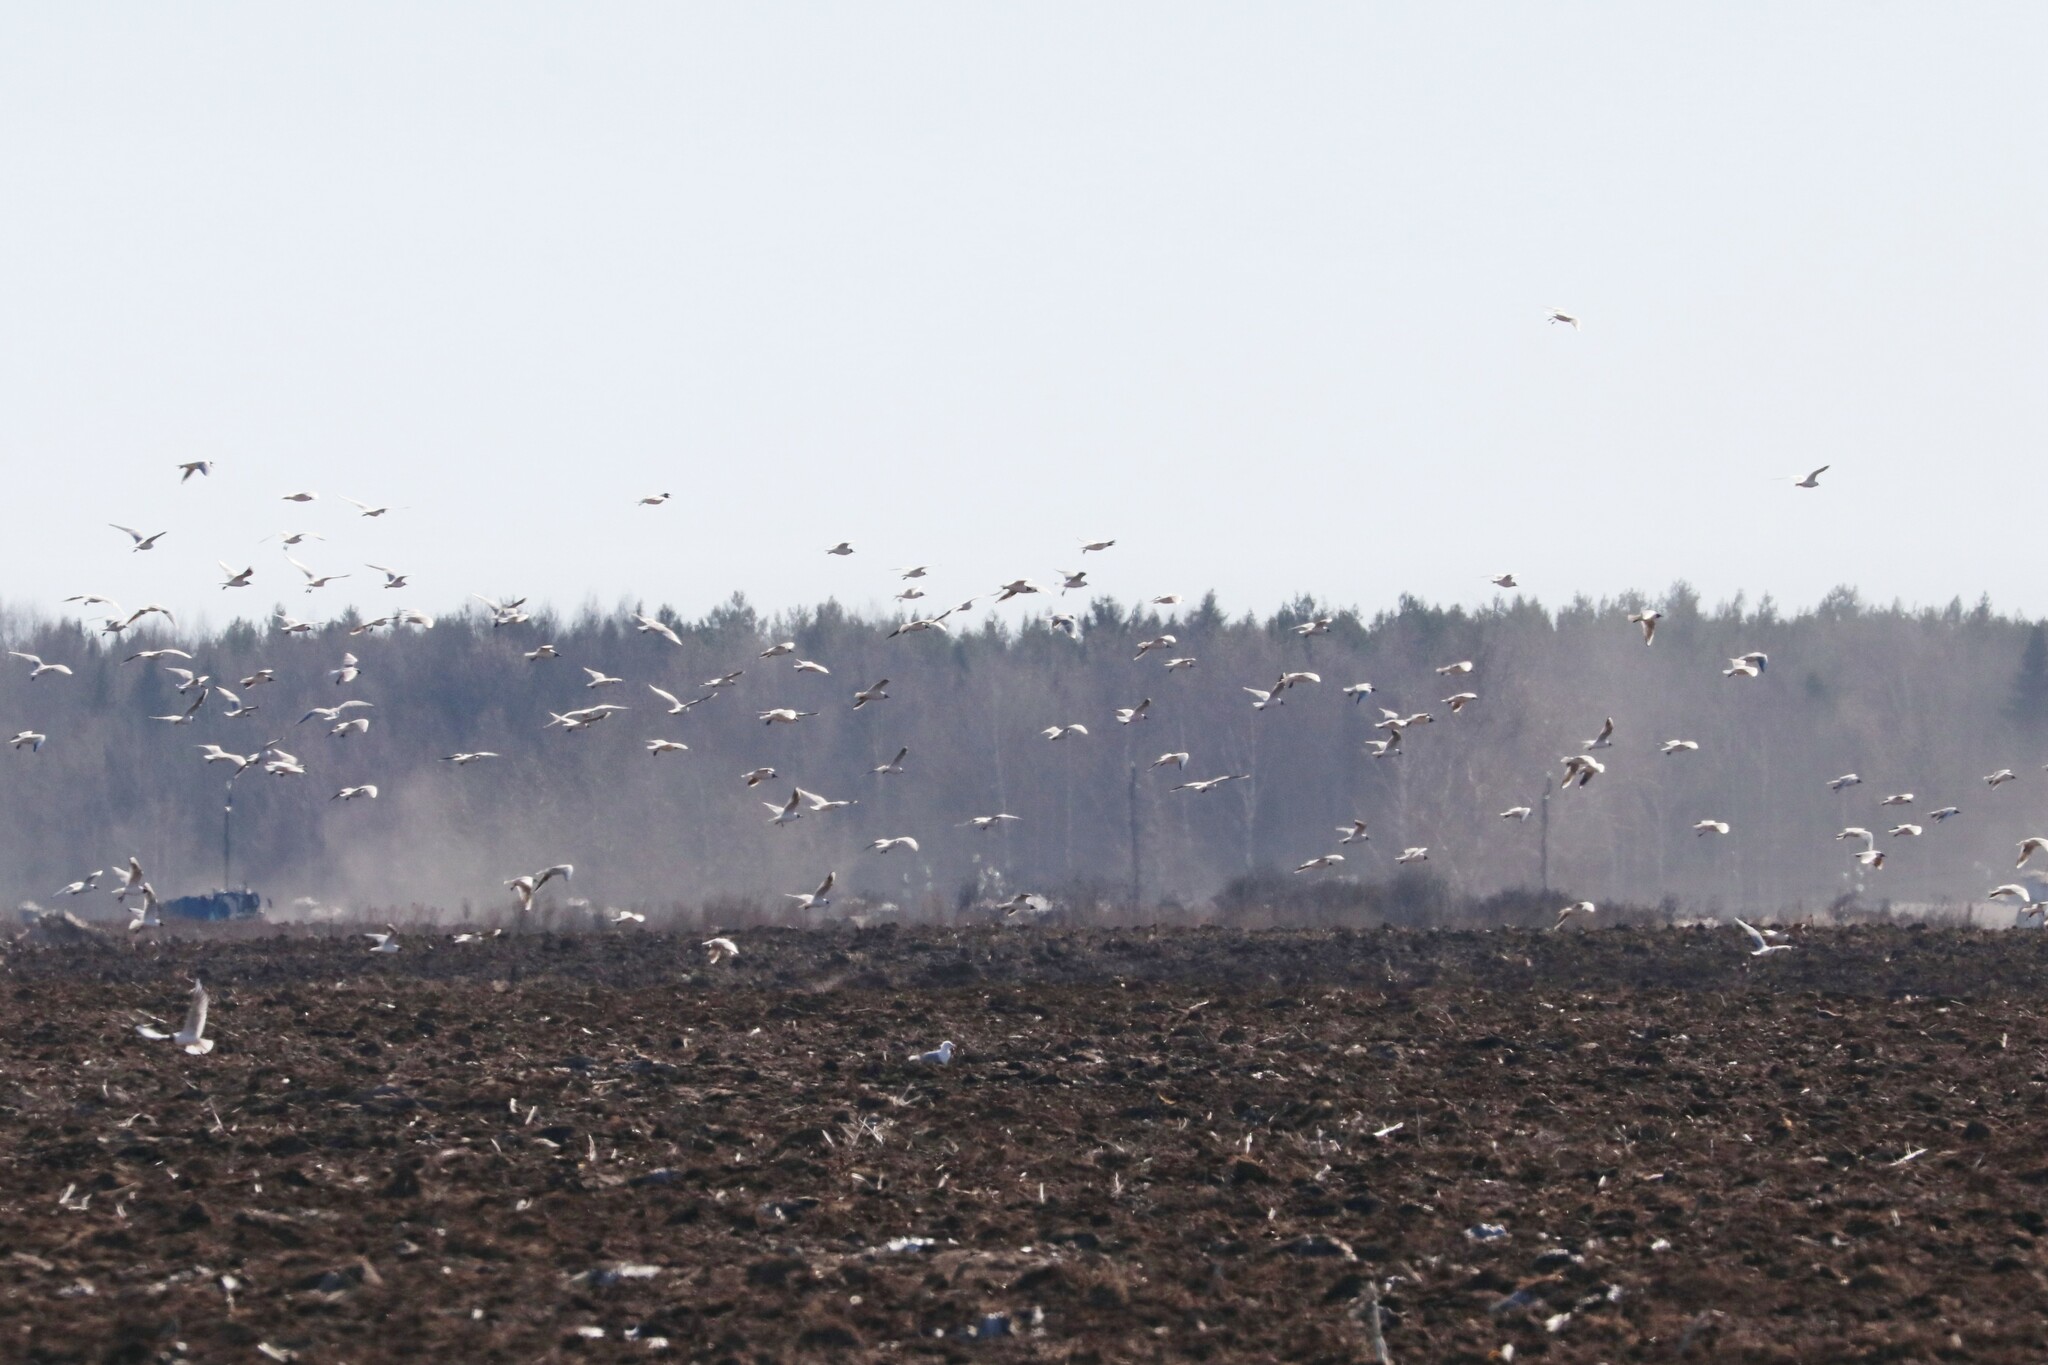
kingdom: Animalia
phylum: Chordata
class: Aves
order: Charadriiformes
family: Laridae
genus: Chroicocephalus
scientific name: Chroicocephalus ridibundus
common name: Black-headed gull
